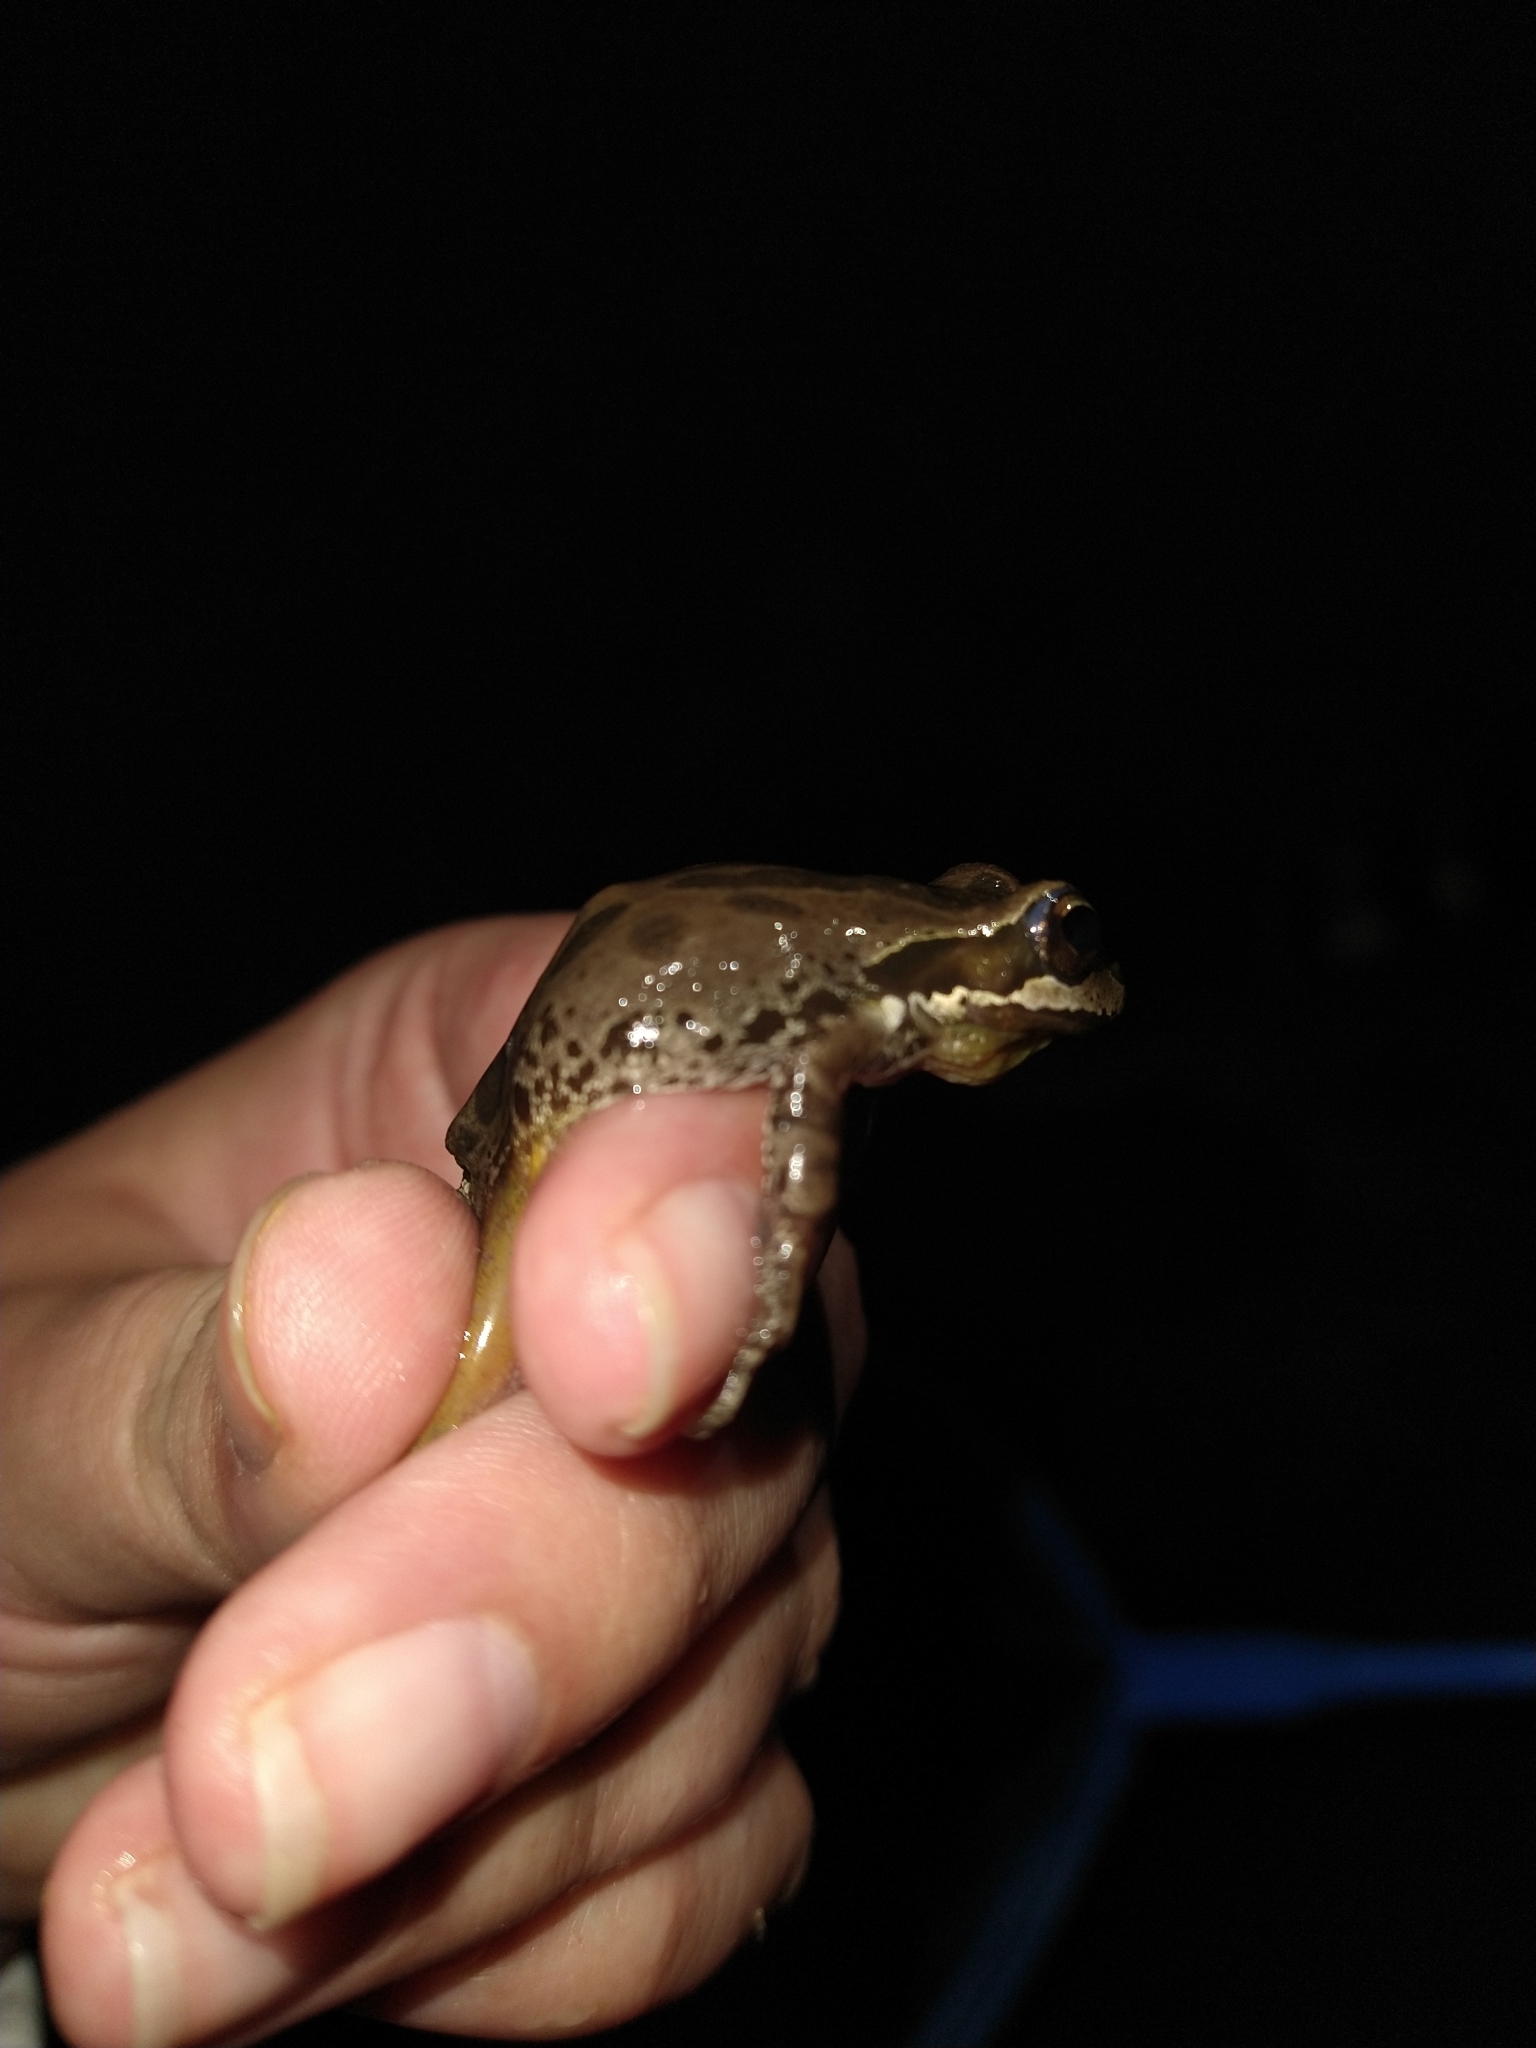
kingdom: Animalia
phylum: Chordata
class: Amphibia
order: Anura
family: Hylidae
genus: Pseudacris
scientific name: Pseudacris regilla
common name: Pacific chorus frog
